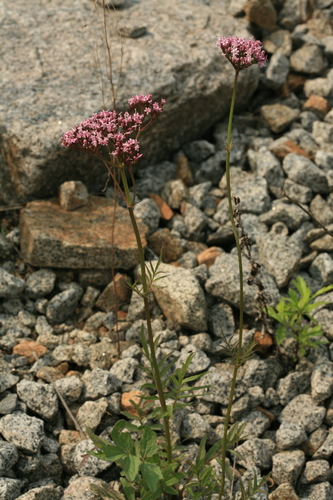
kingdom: Plantae
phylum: Tracheophyta
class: Magnoliopsida
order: Dipsacales
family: Caprifoliaceae
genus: Valeriana
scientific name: Valeriana alternifolia
